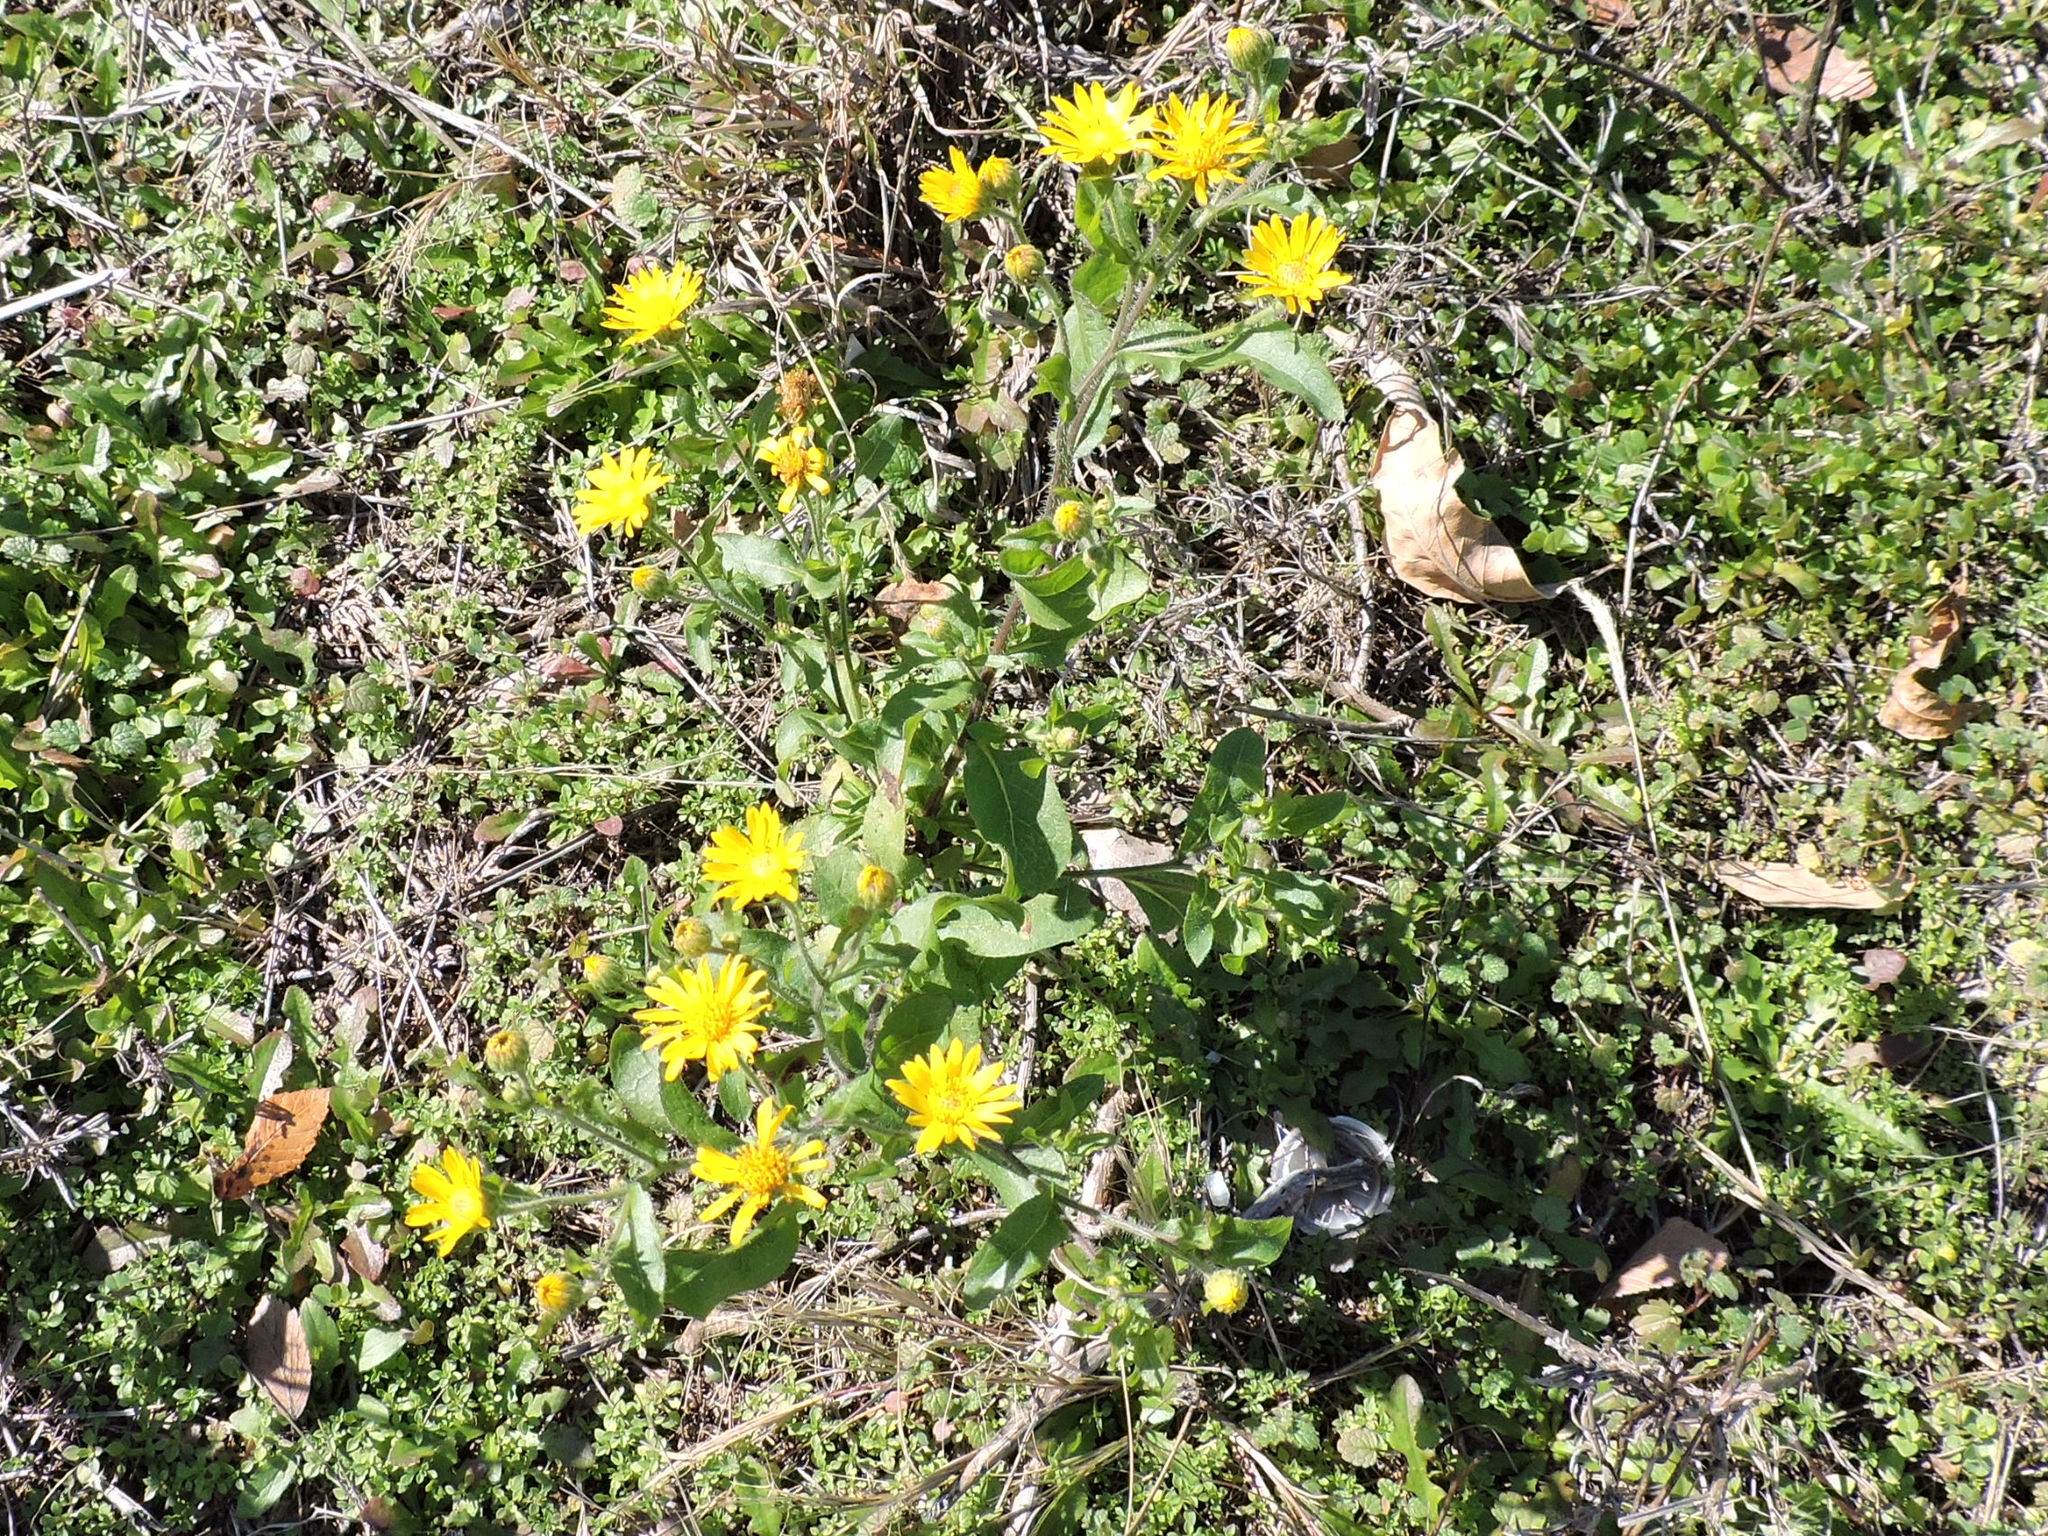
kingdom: Plantae
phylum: Tracheophyta
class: Magnoliopsida
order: Asterales
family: Asteraceae
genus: Heterotheca
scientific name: Heterotheca subaxillaris
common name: Camphorweed
